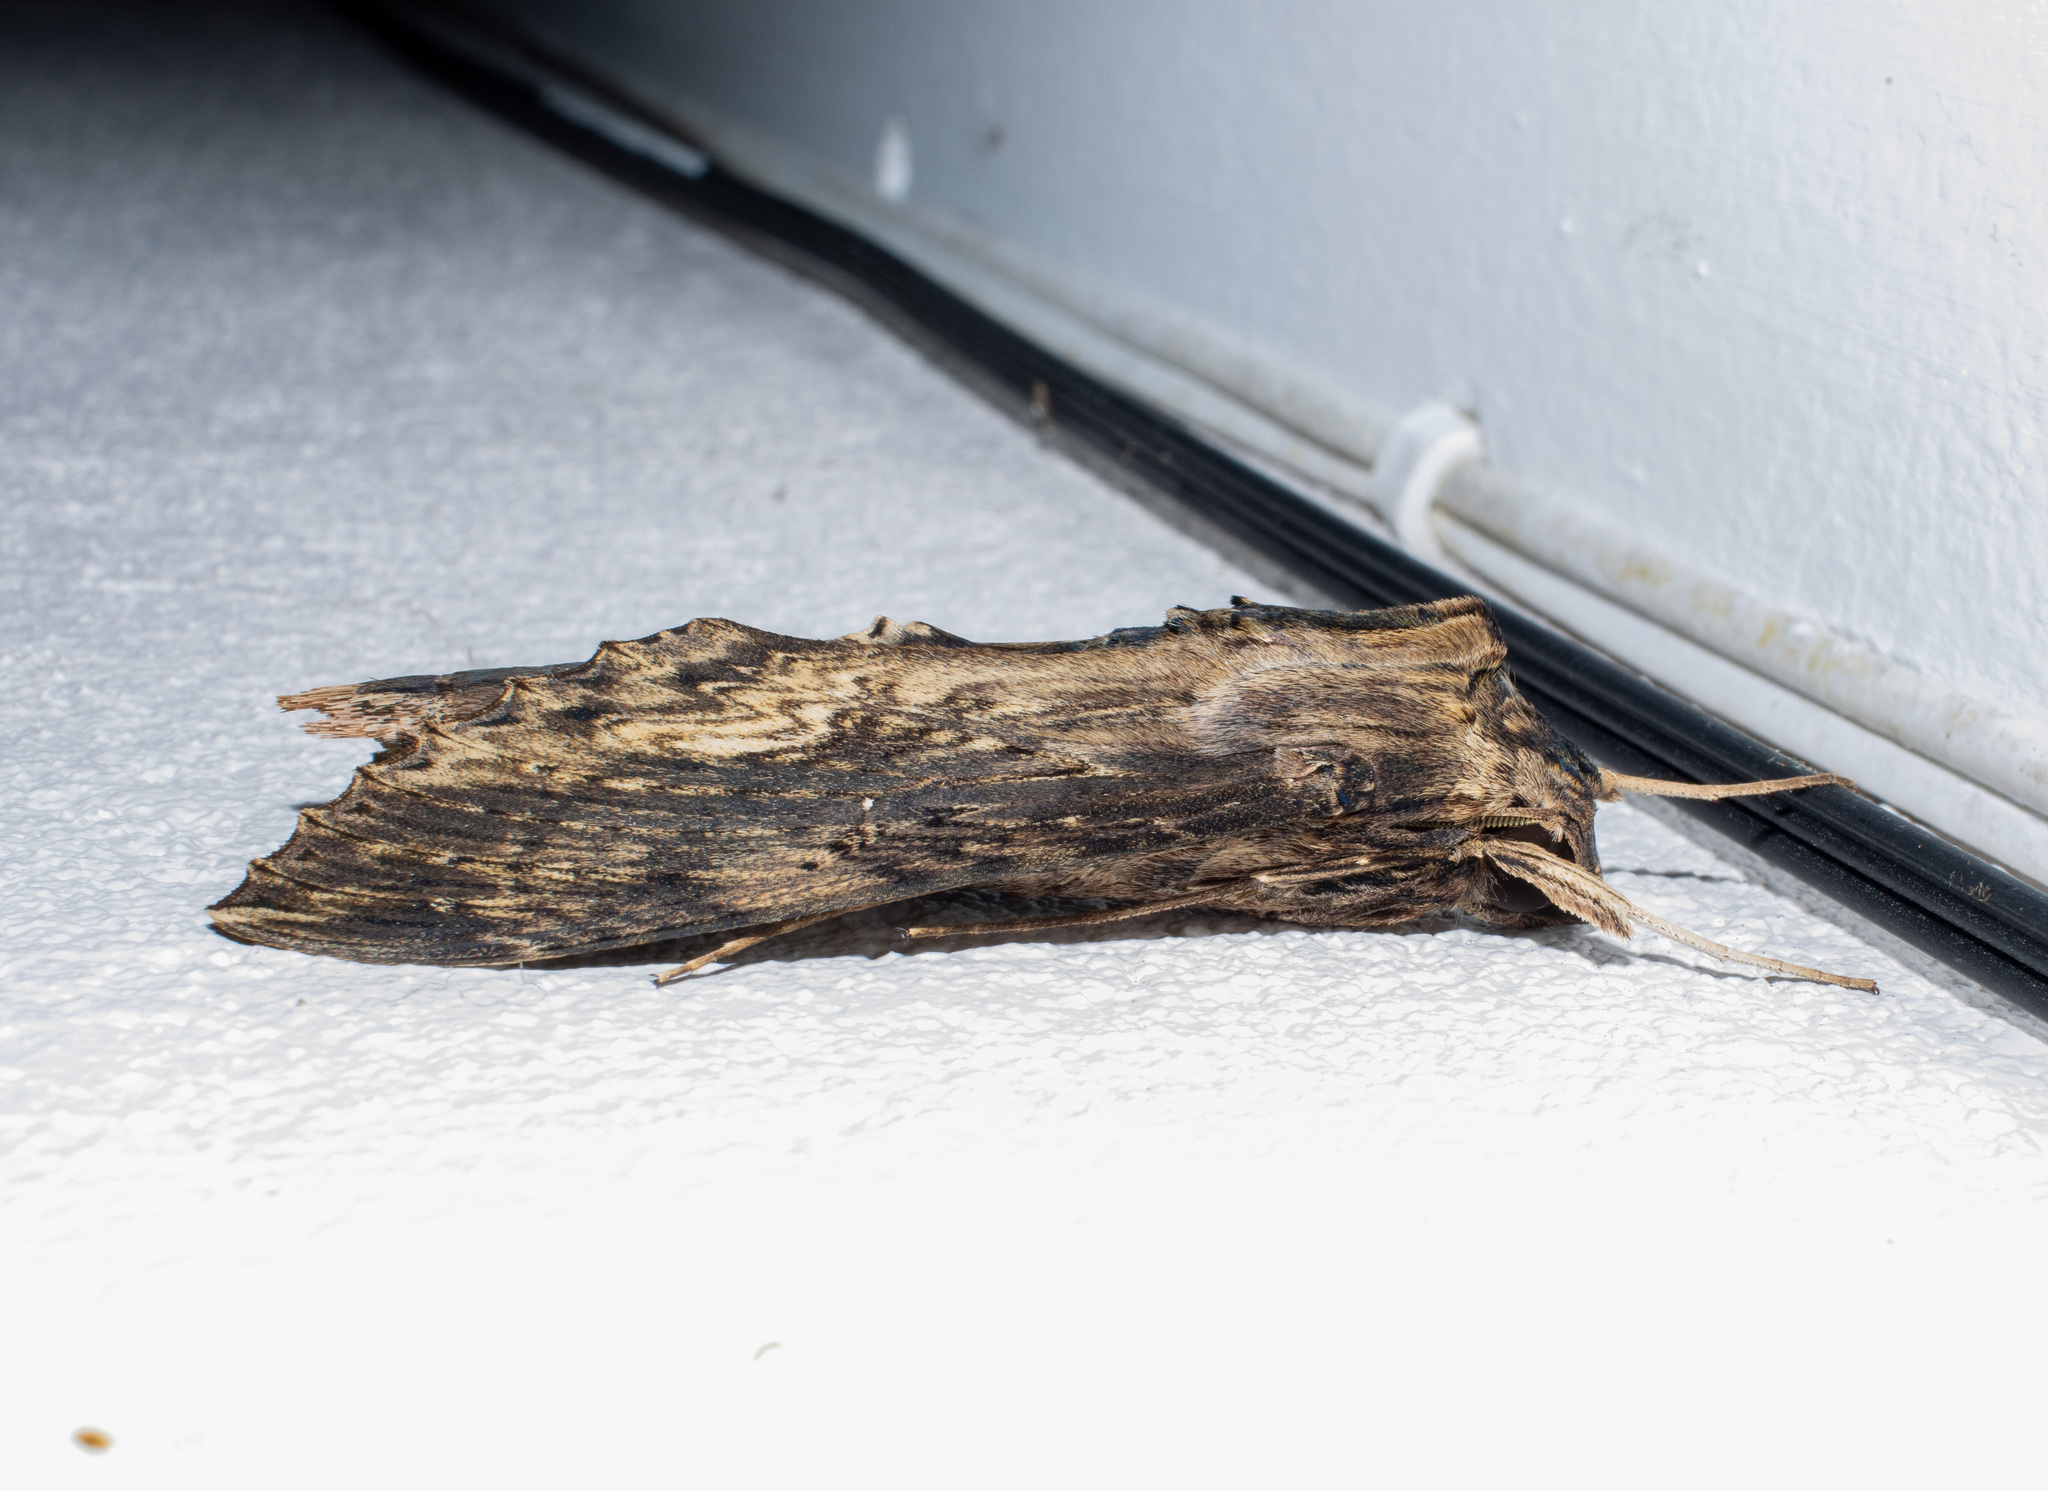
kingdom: Animalia
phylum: Arthropoda
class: Insecta
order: Lepidoptera
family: Sphingidae
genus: Erinnyis
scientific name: Erinnyis alope
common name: Alope sphinx
